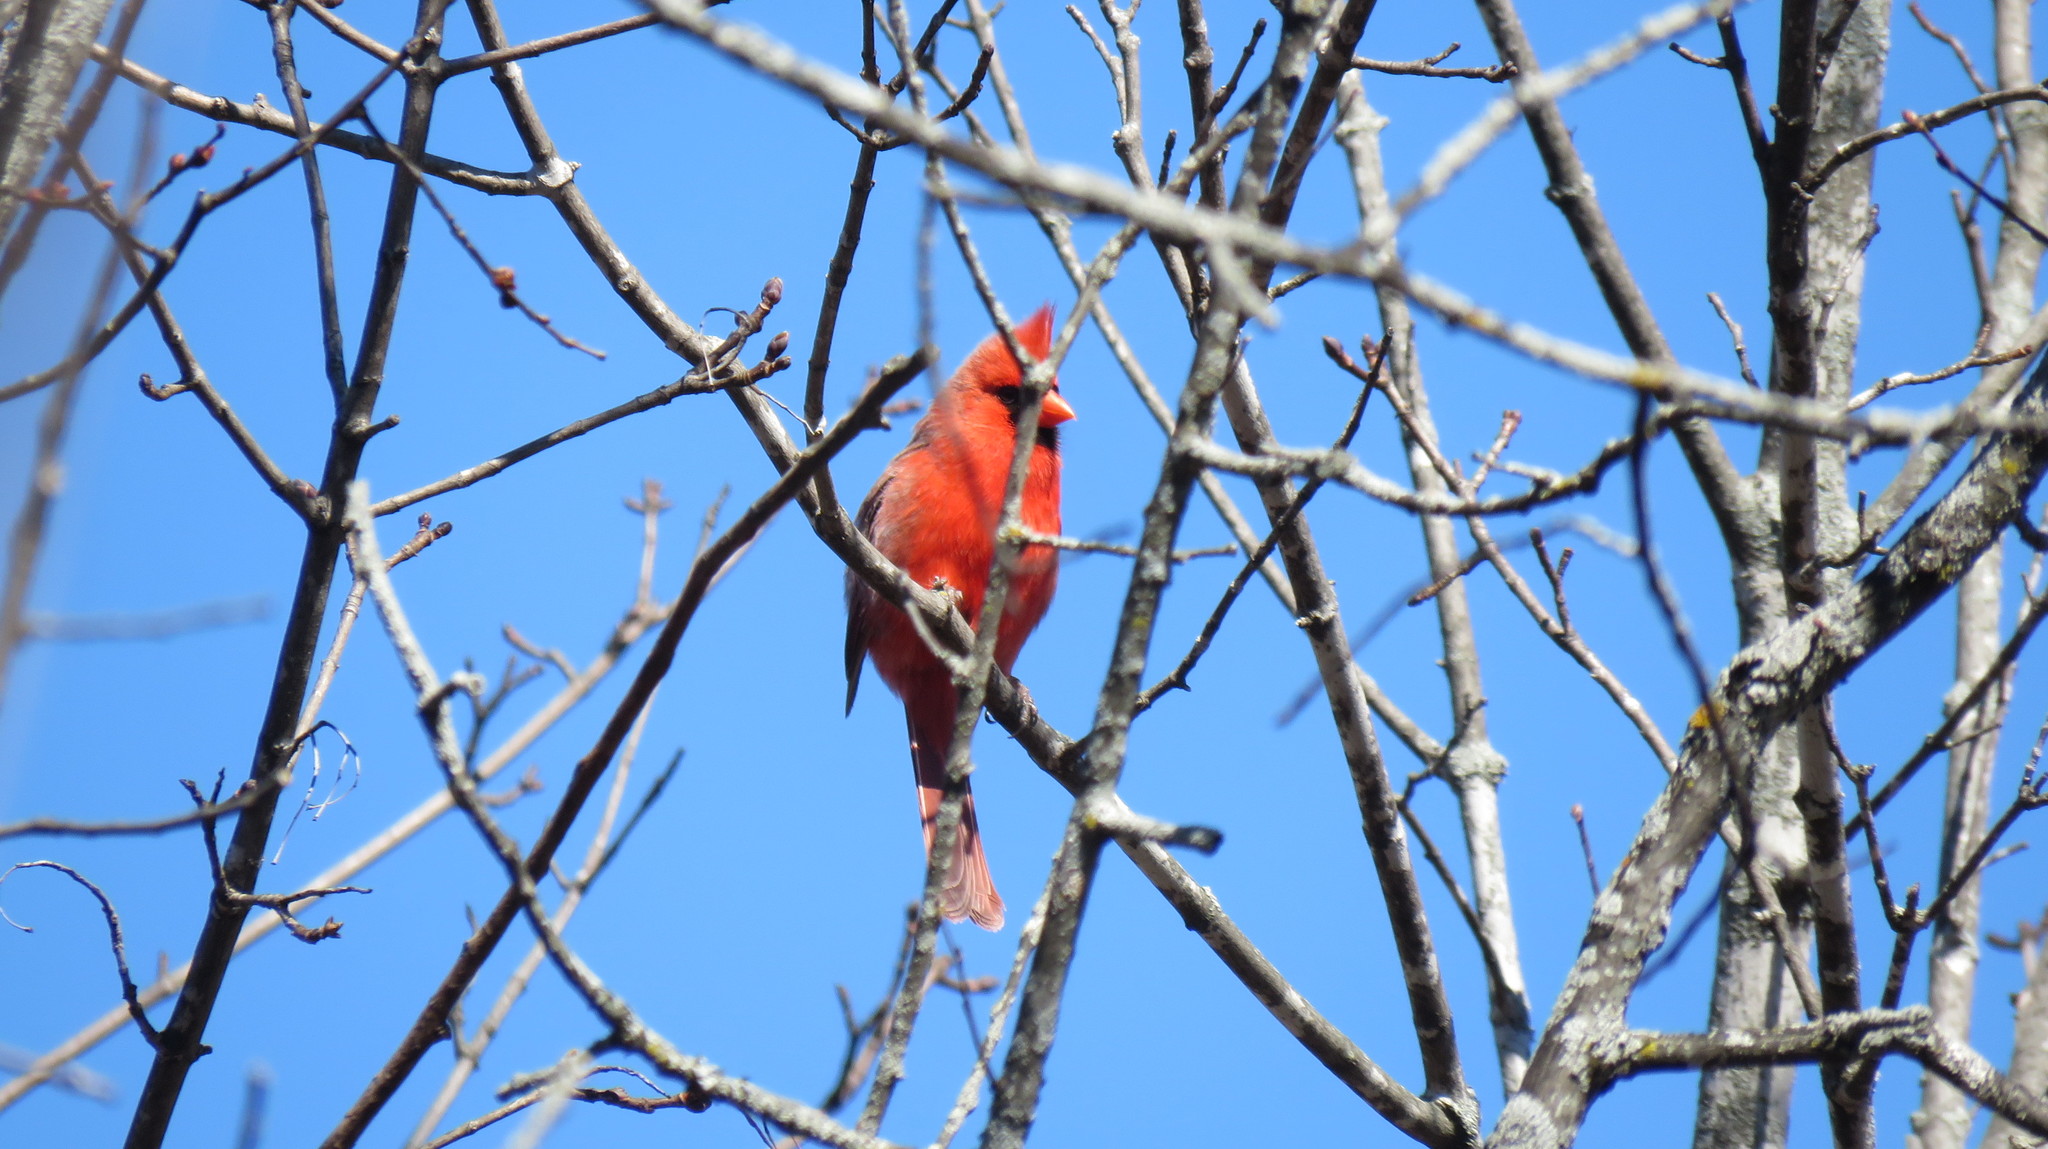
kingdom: Animalia
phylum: Chordata
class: Aves
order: Passeriformes
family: Cardinalidae
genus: Cardinalis
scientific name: Cardinalis cardinalis
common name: Northern cardinal
